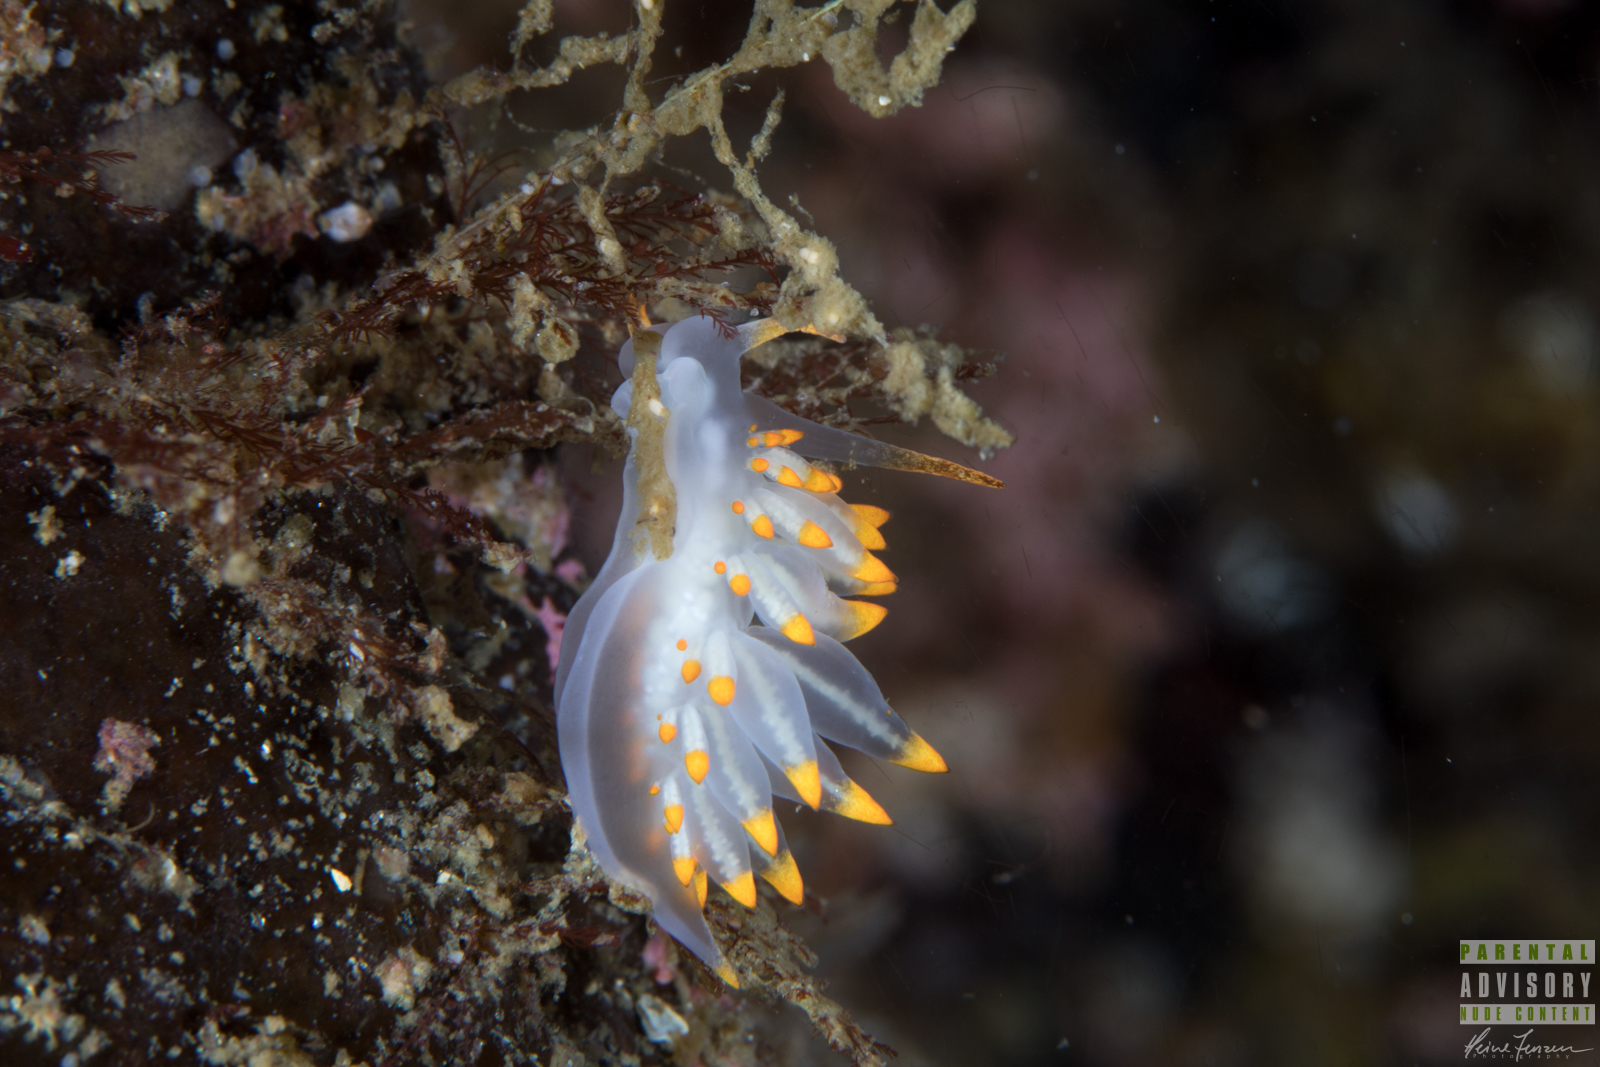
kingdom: Animalia
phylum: Mollusca
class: Gastropoda
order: Nudibranchia
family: Eubranchidae
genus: Amphorina
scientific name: Amphorina farrani
